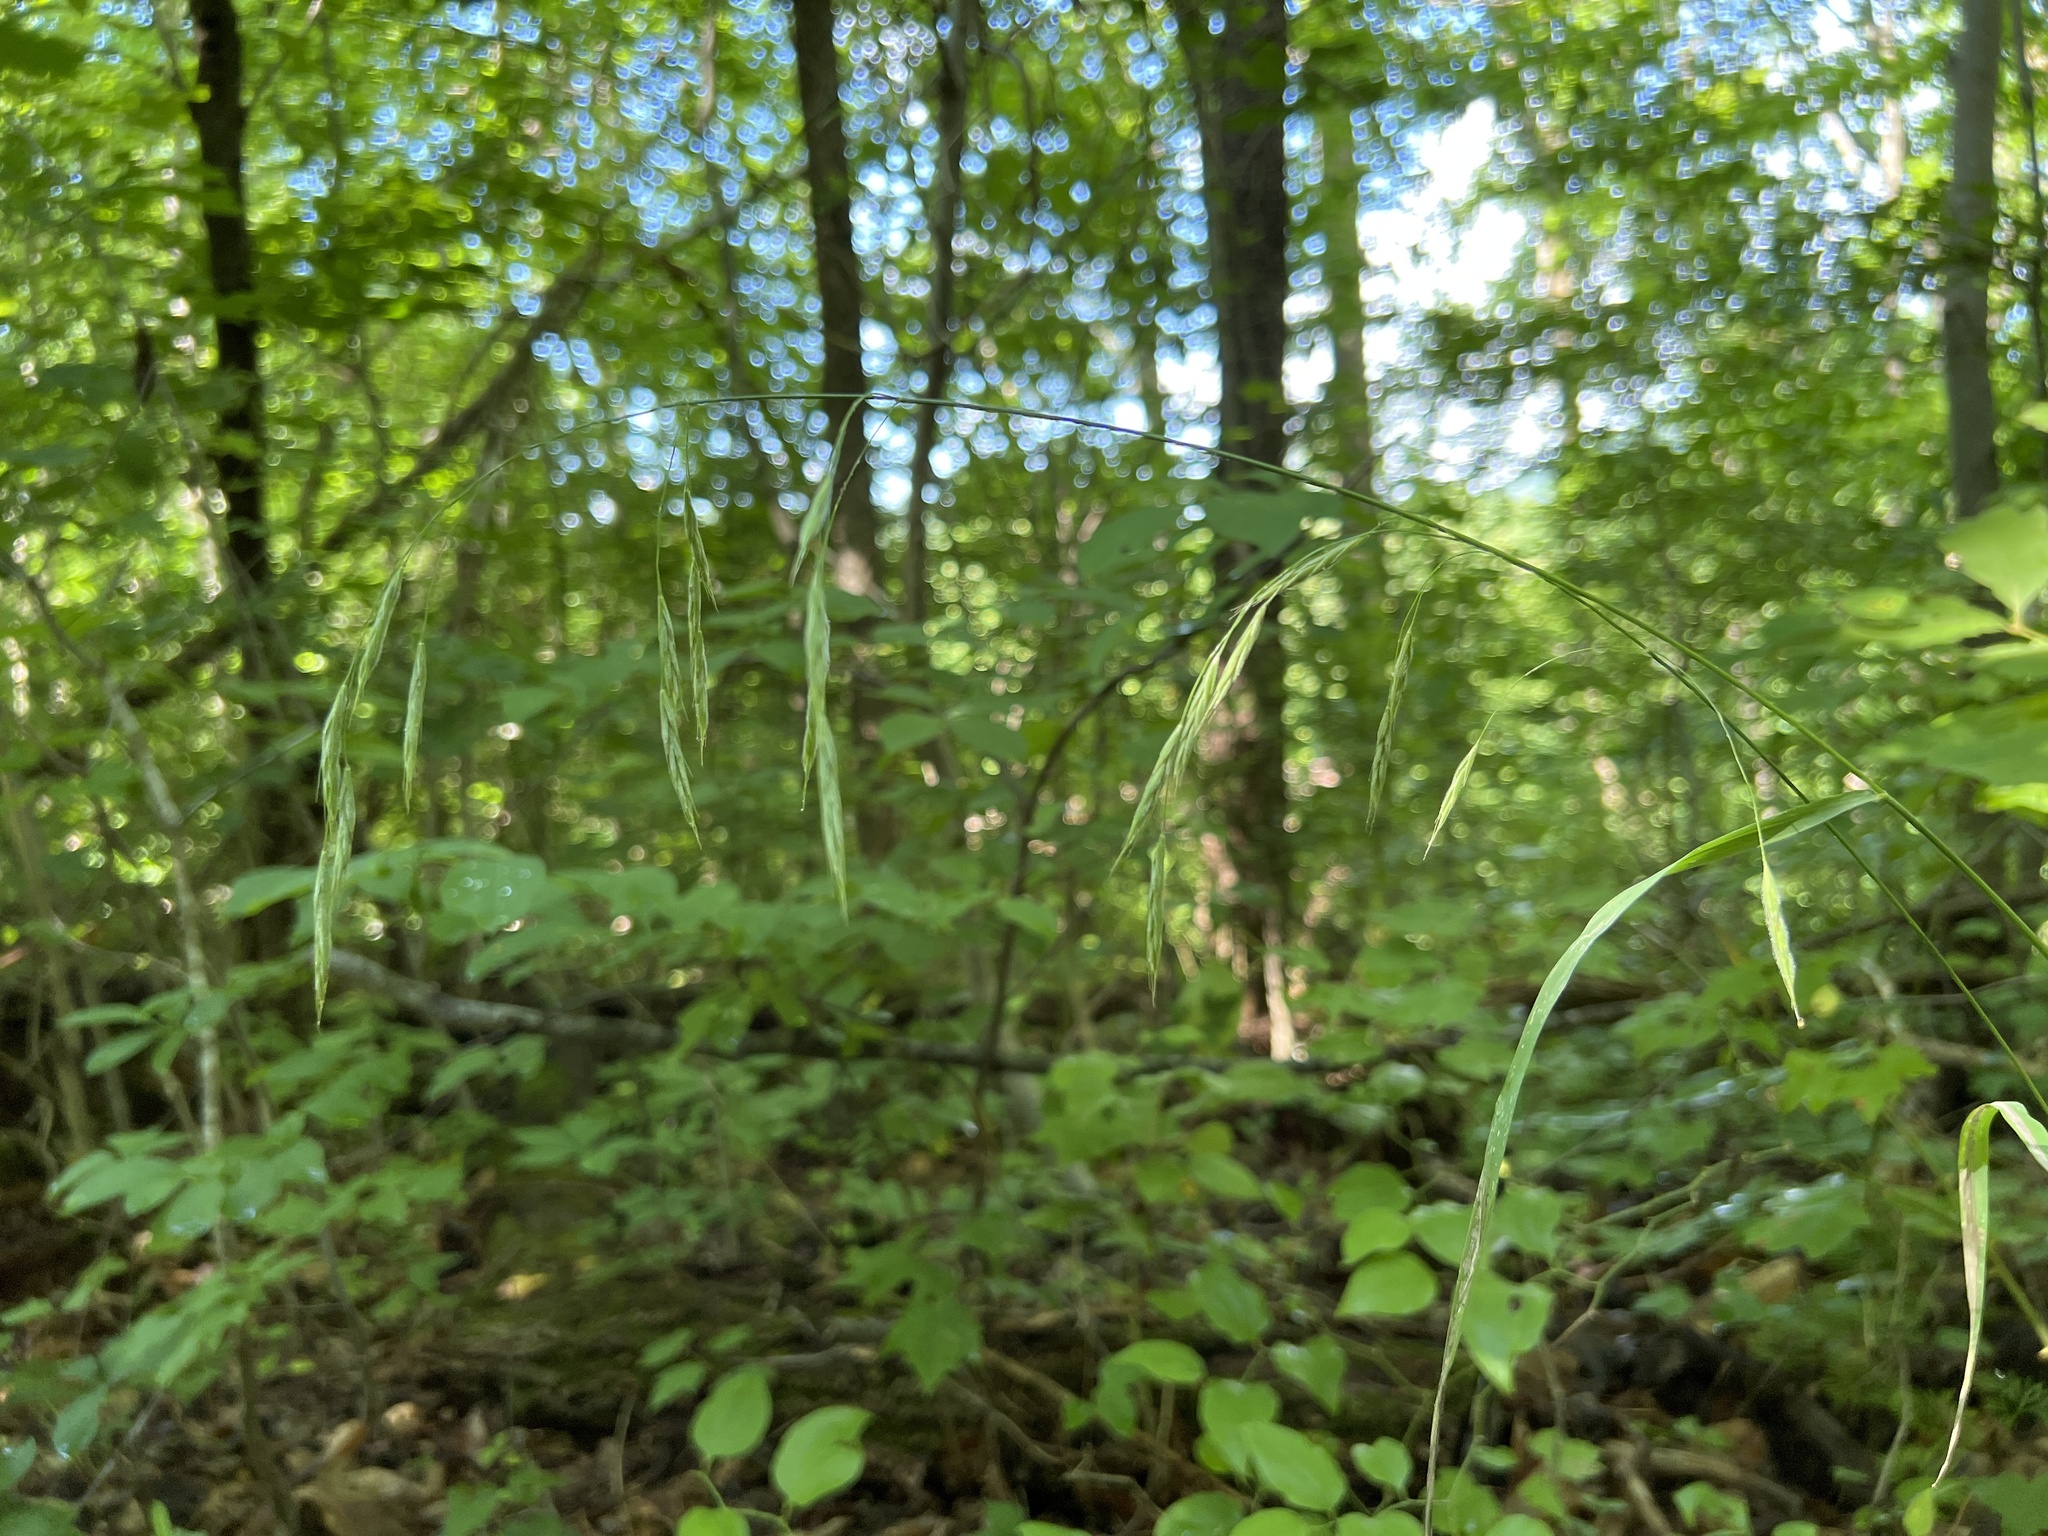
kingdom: Plantae
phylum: Tracheophyta
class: Liliopsida
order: Poales
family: Poaceae
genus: Bromus
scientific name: Bromus pubescens
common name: Hairy wood brome grass
